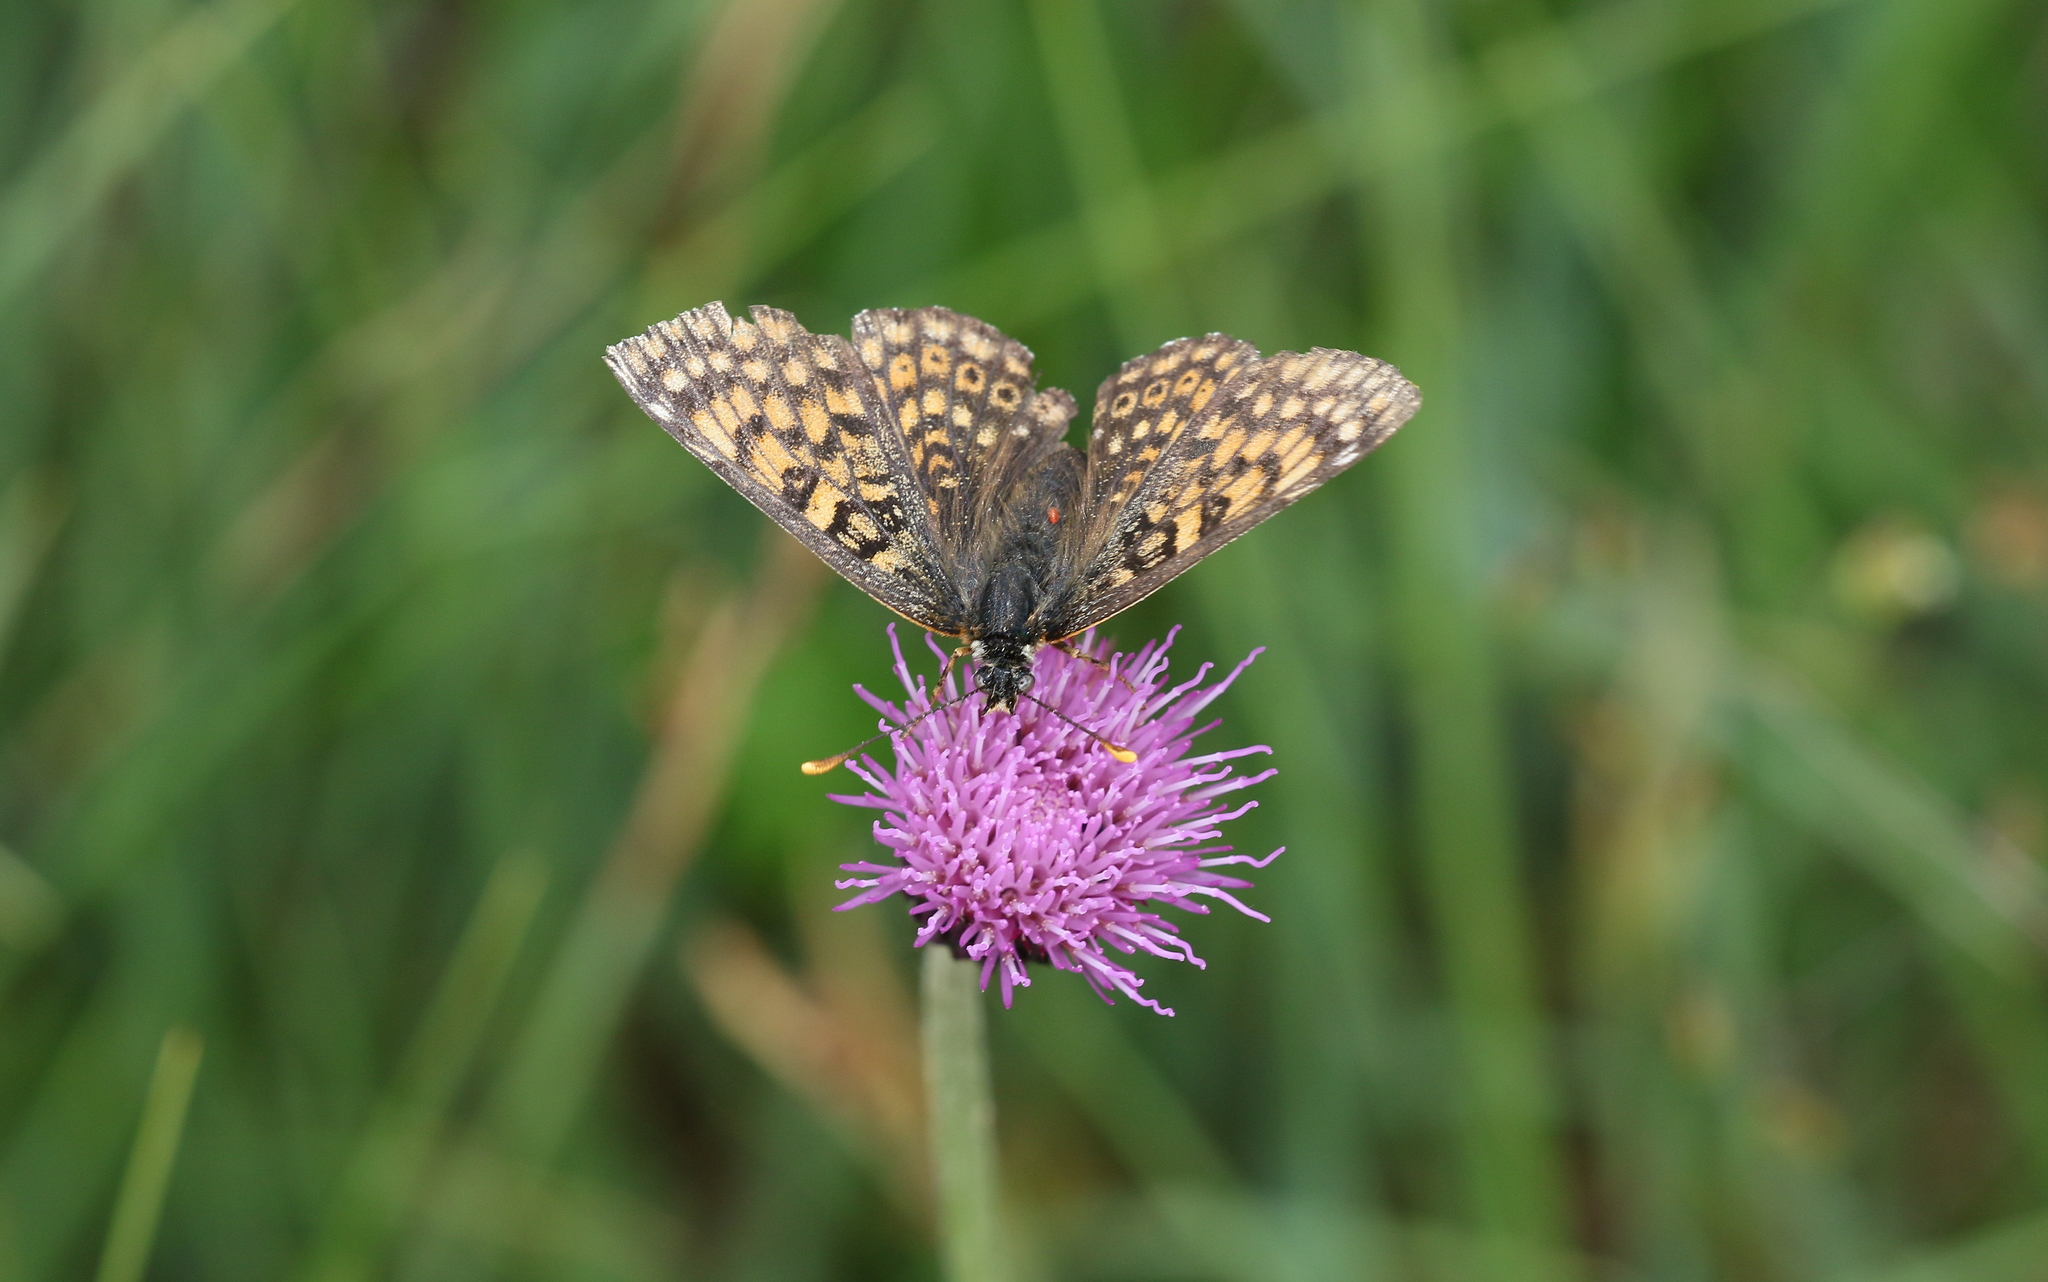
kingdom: Animalia
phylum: Arthropoda
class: Insecta
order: Lepidoptera
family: Nymphalidae
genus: Melitaea
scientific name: Melitaea cinxia
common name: Glanville fritillary
